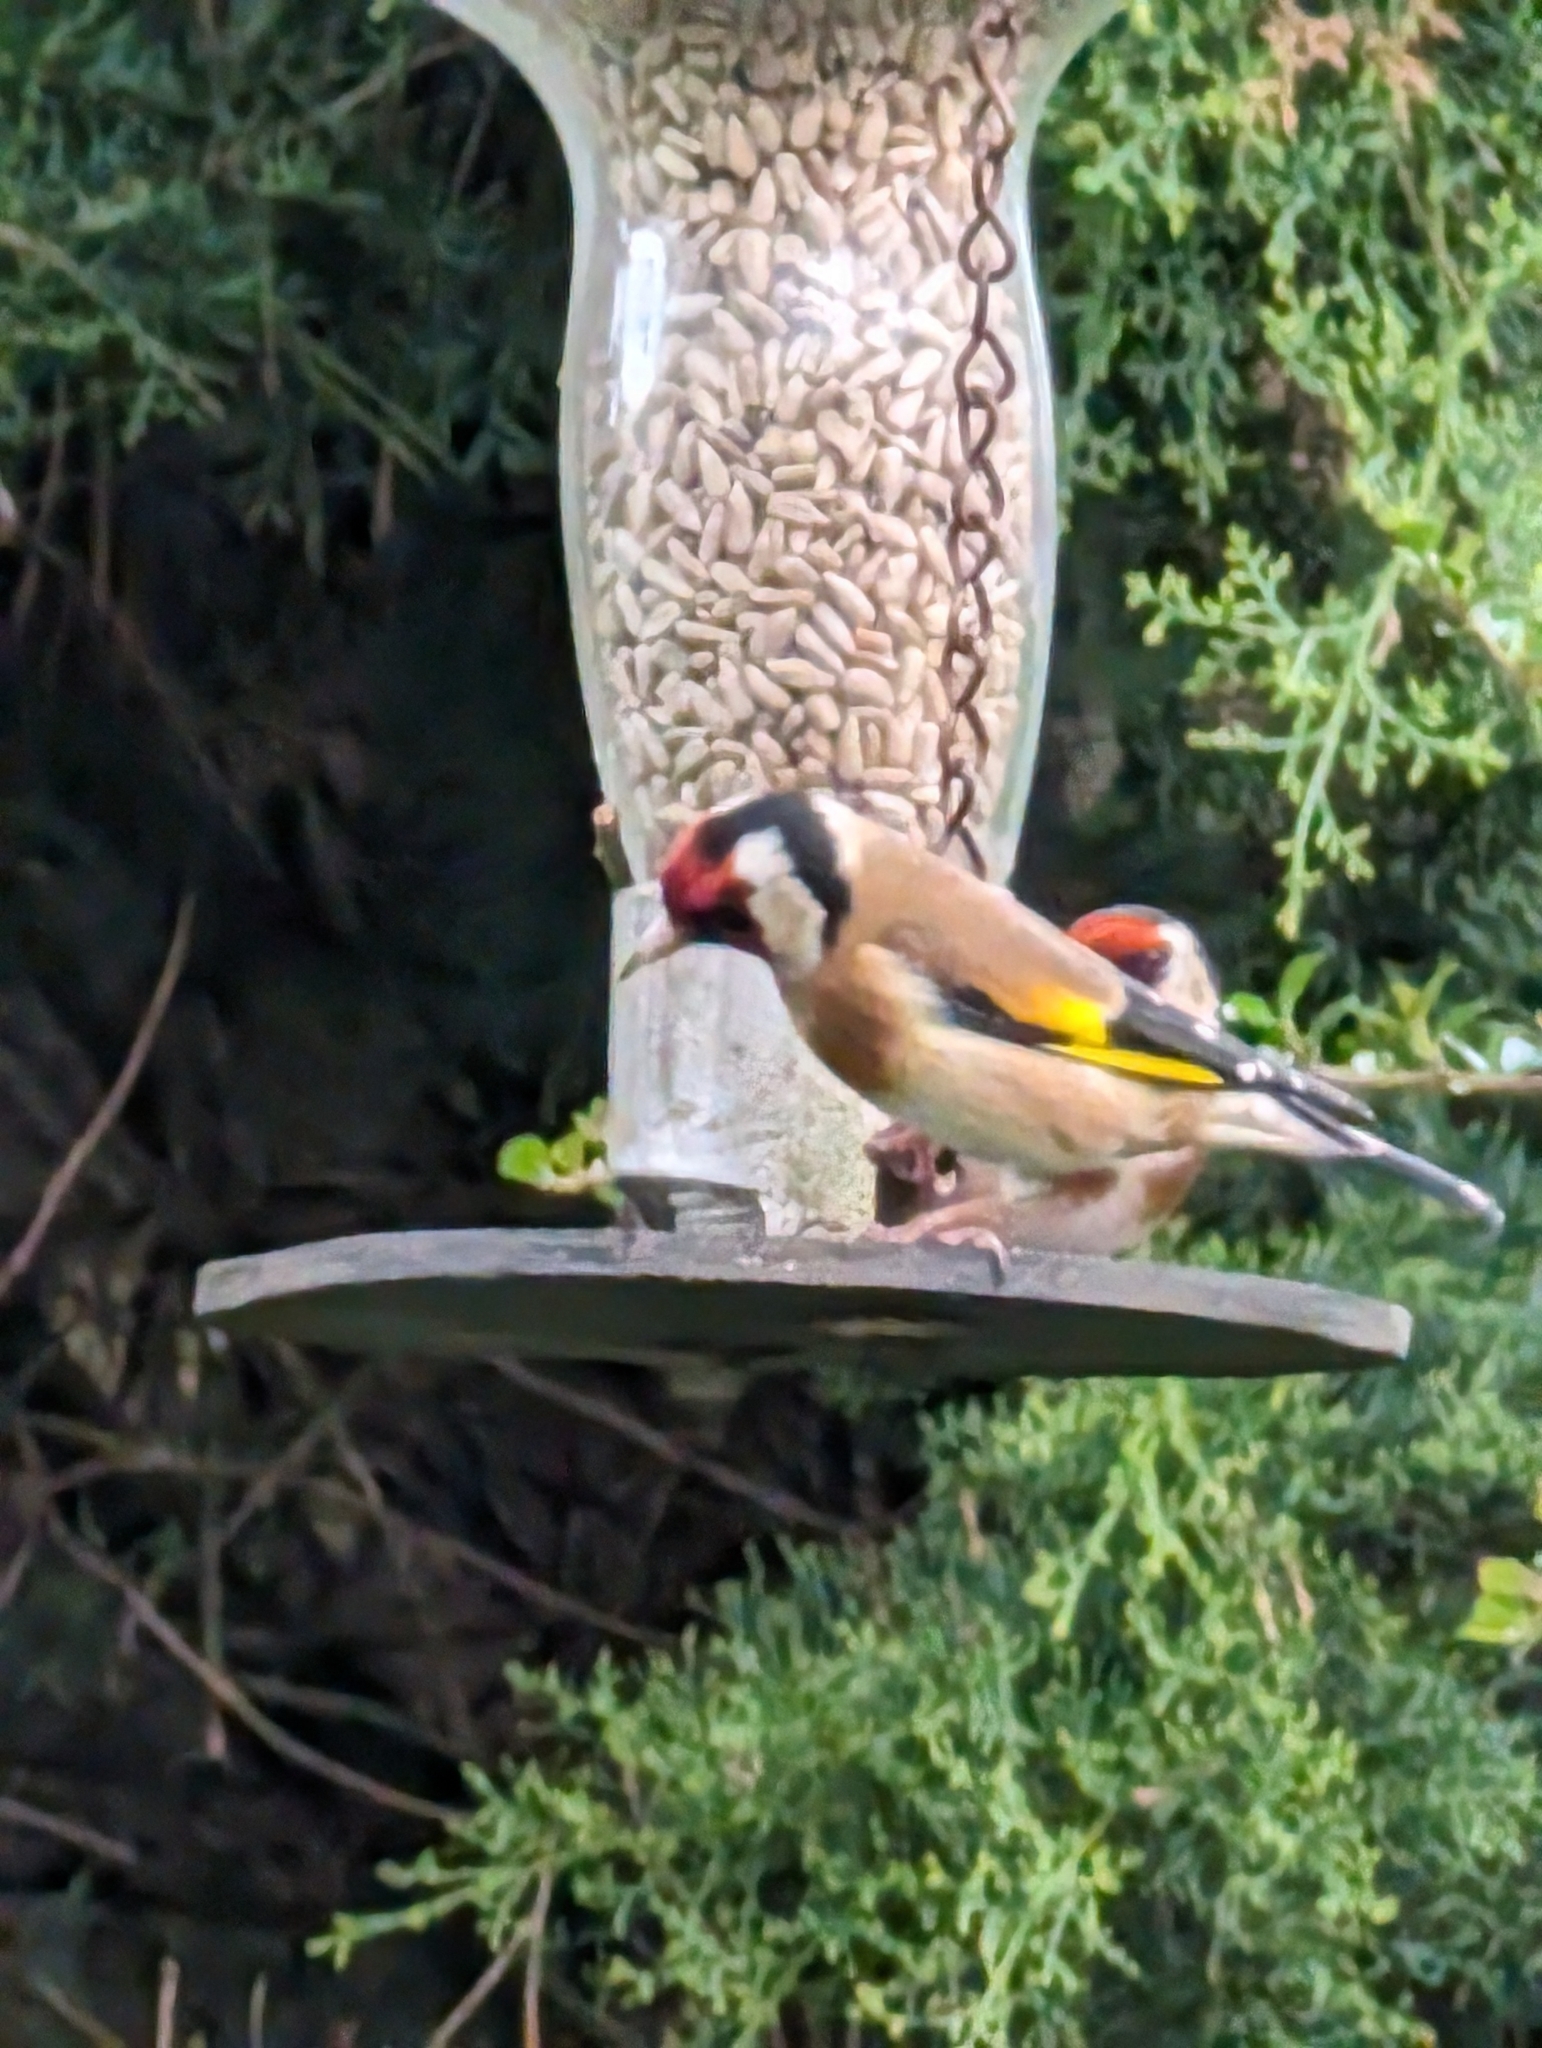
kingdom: Animalia
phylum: Chordata
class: Aves
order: Passeriformes
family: Fringillidae
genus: Carduelis
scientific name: Carduelis carduelis
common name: European goldfinch
